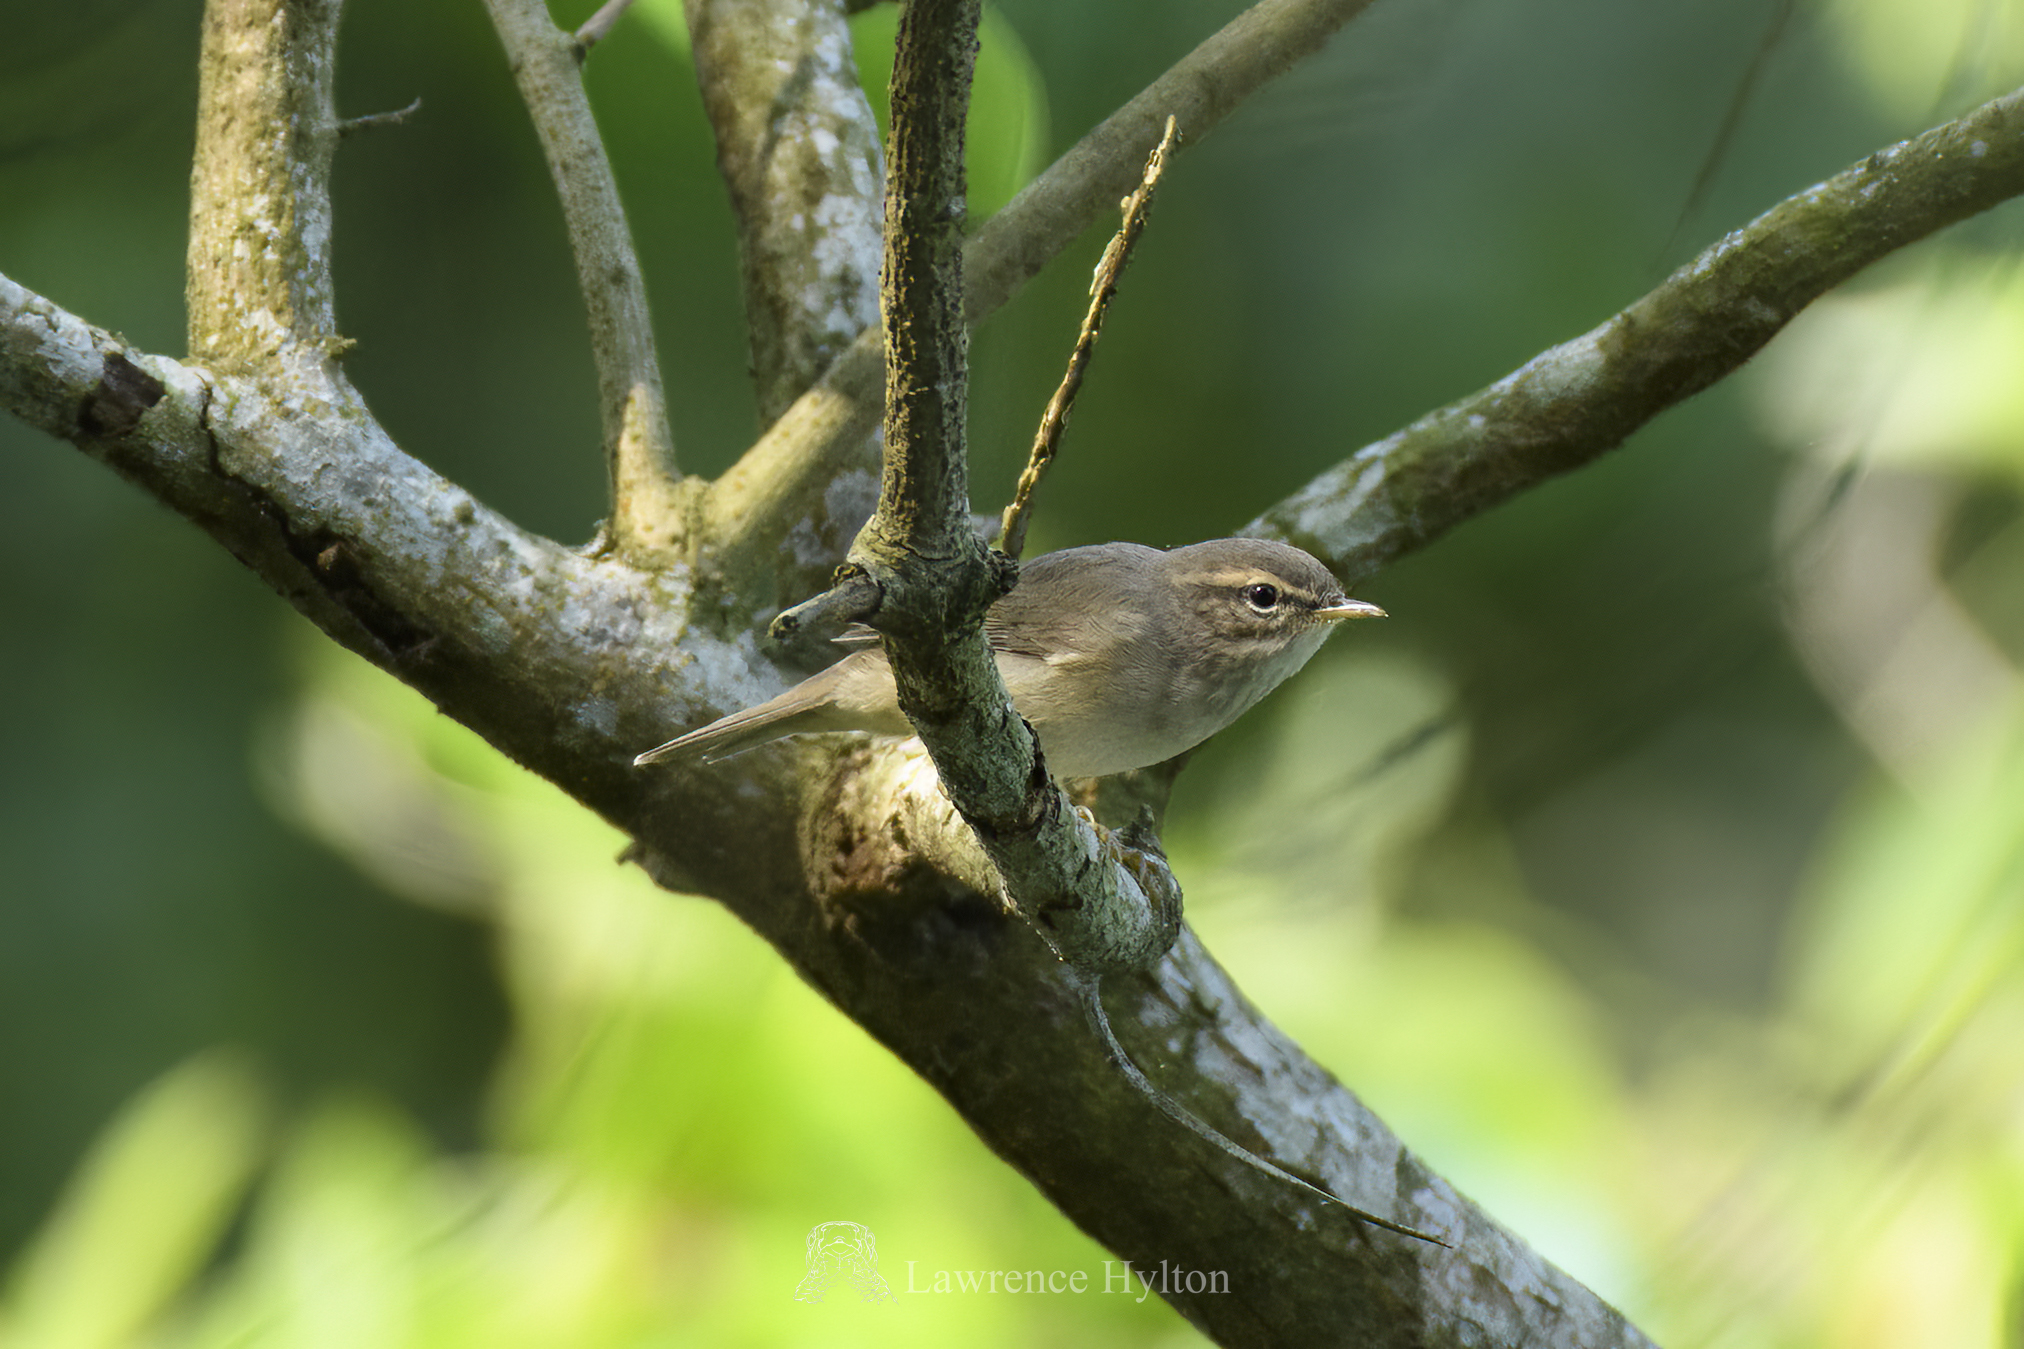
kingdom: Animalia
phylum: Chordata
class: Aves
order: Passeriformes
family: Phylloscopidae
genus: Phylloscopus
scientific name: Phylloscopus fuscatus
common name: Dusky warbler
